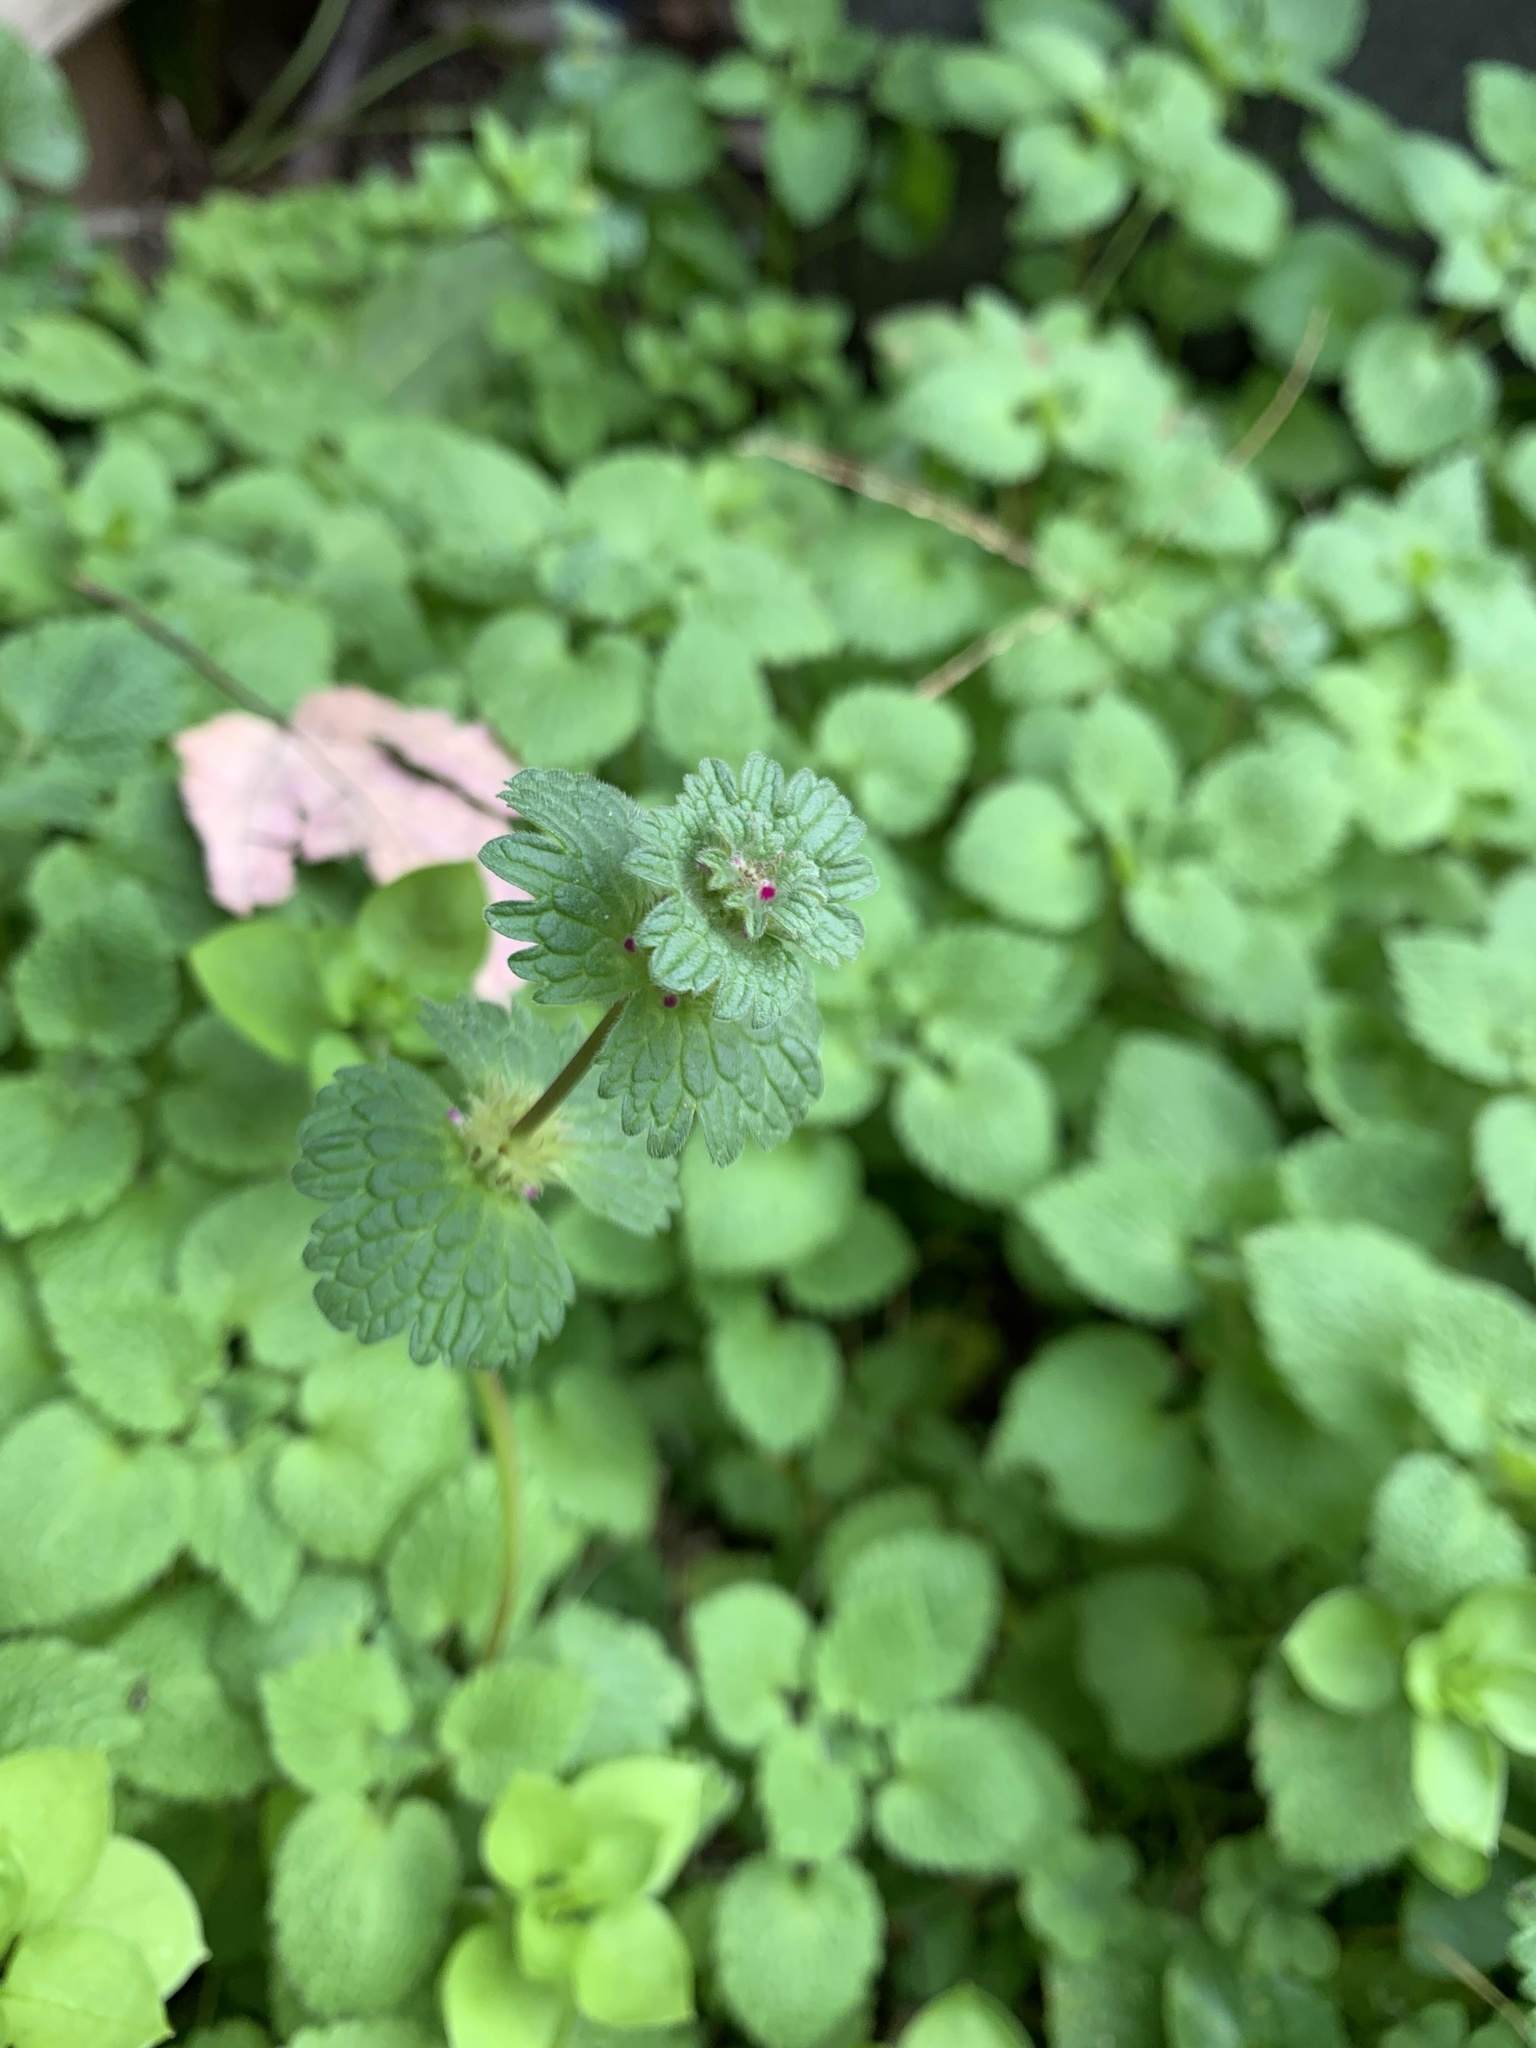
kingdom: Plantae
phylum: Tracheophyta
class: Magnoliopsida
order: Lamiales
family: Lamiaceae
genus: Lamium
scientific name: Lamium amplexicaule
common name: Henbit dead-nettle
